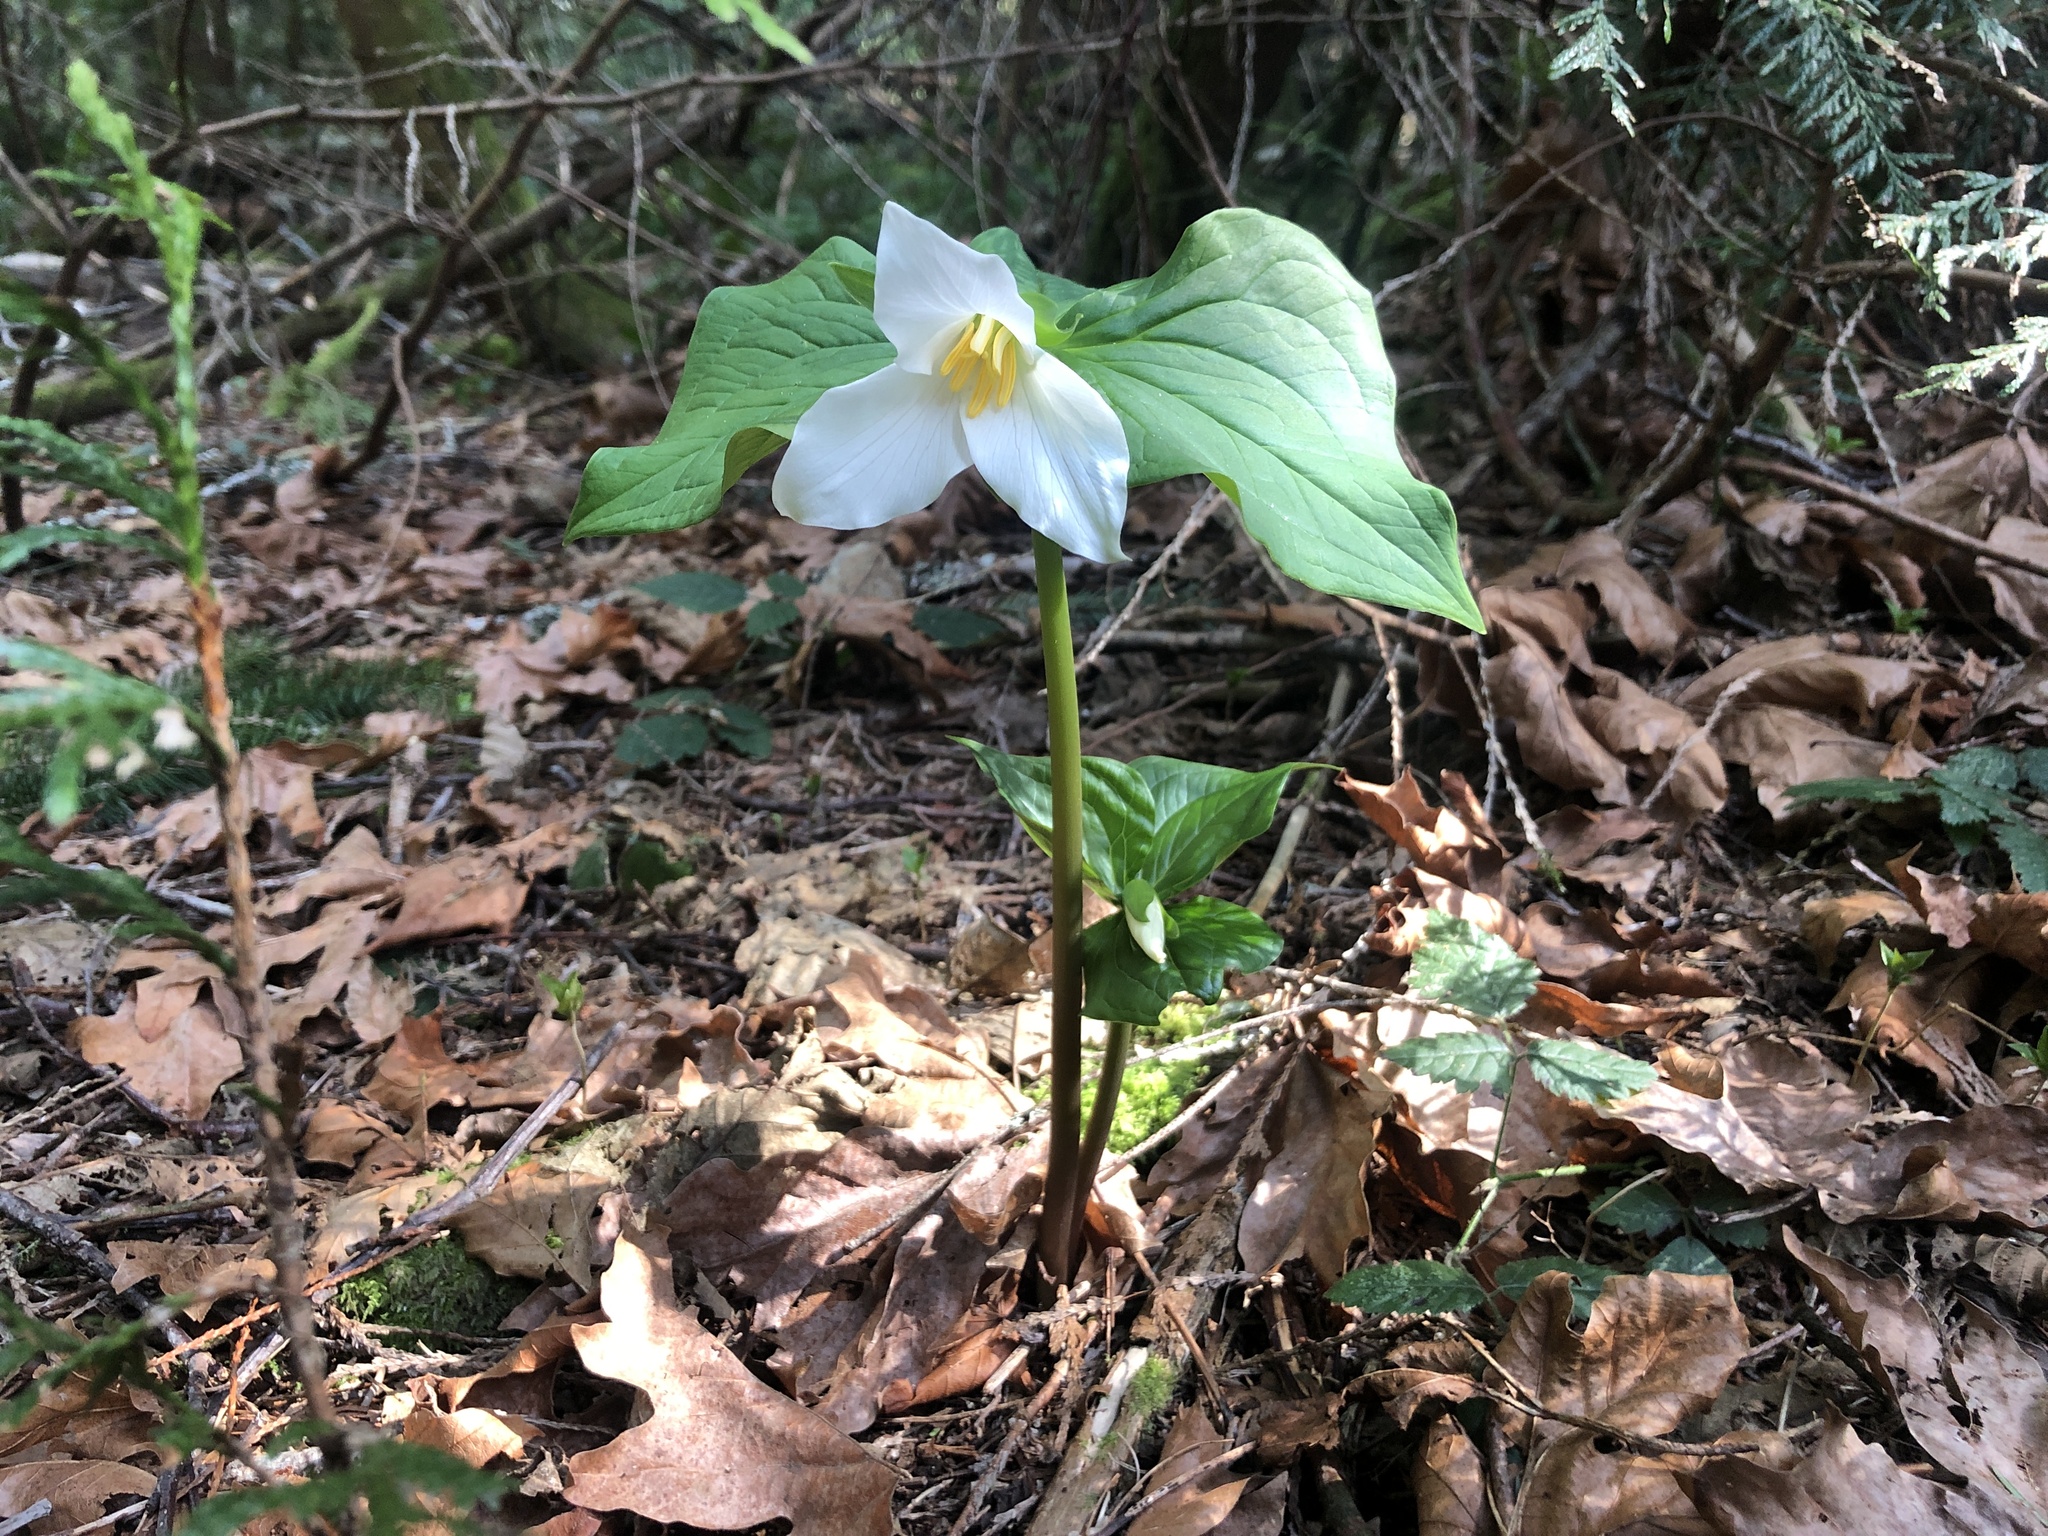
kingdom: Plantae
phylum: Tracheophyta
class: Liliopsida
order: Liliales
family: Melanthiaceae
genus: Trillium
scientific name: Trillium ovatum
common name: Pacific trillium
